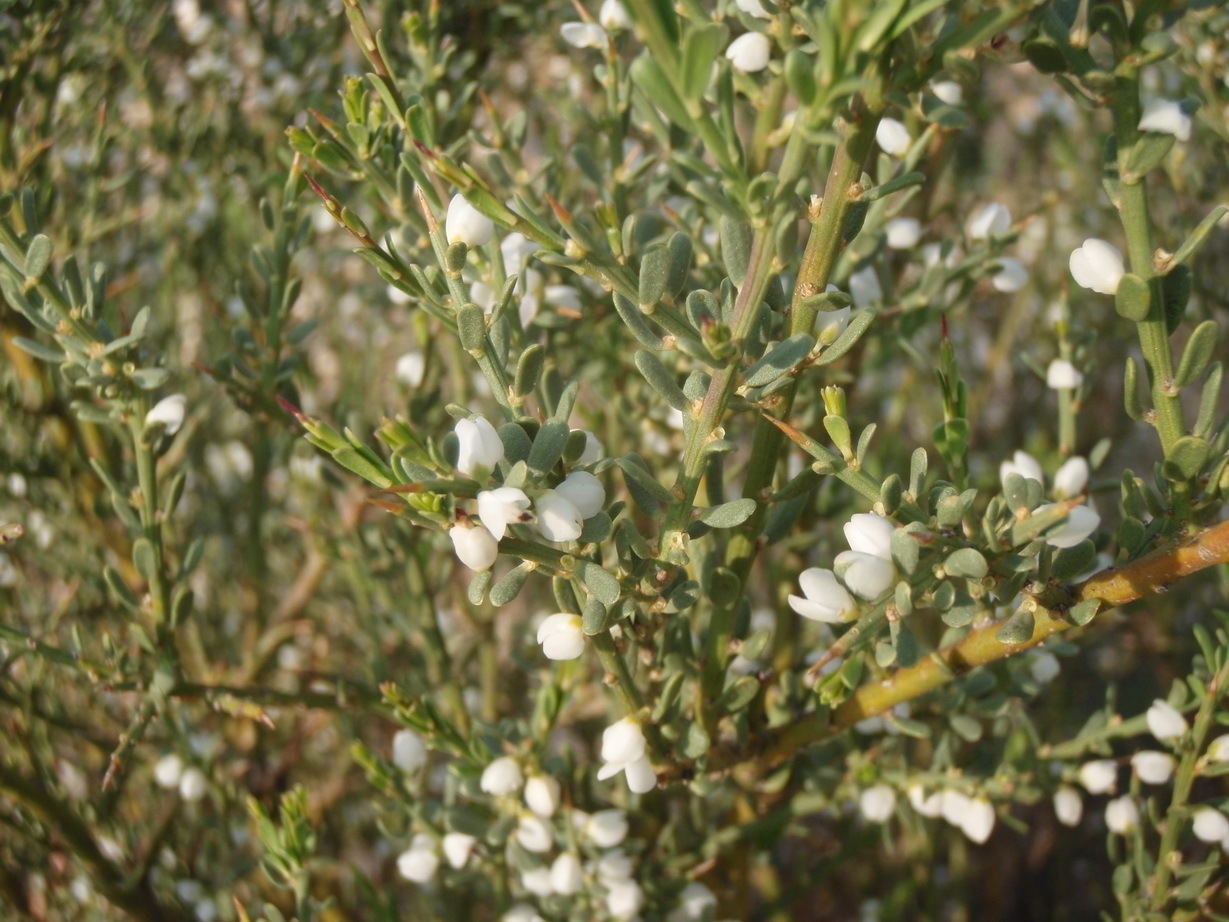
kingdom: Plantae
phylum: Tracheophyta
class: Magnoliopsida
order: Fabales
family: Polygalaceae
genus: Muraltia
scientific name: Muraltia spinosa
